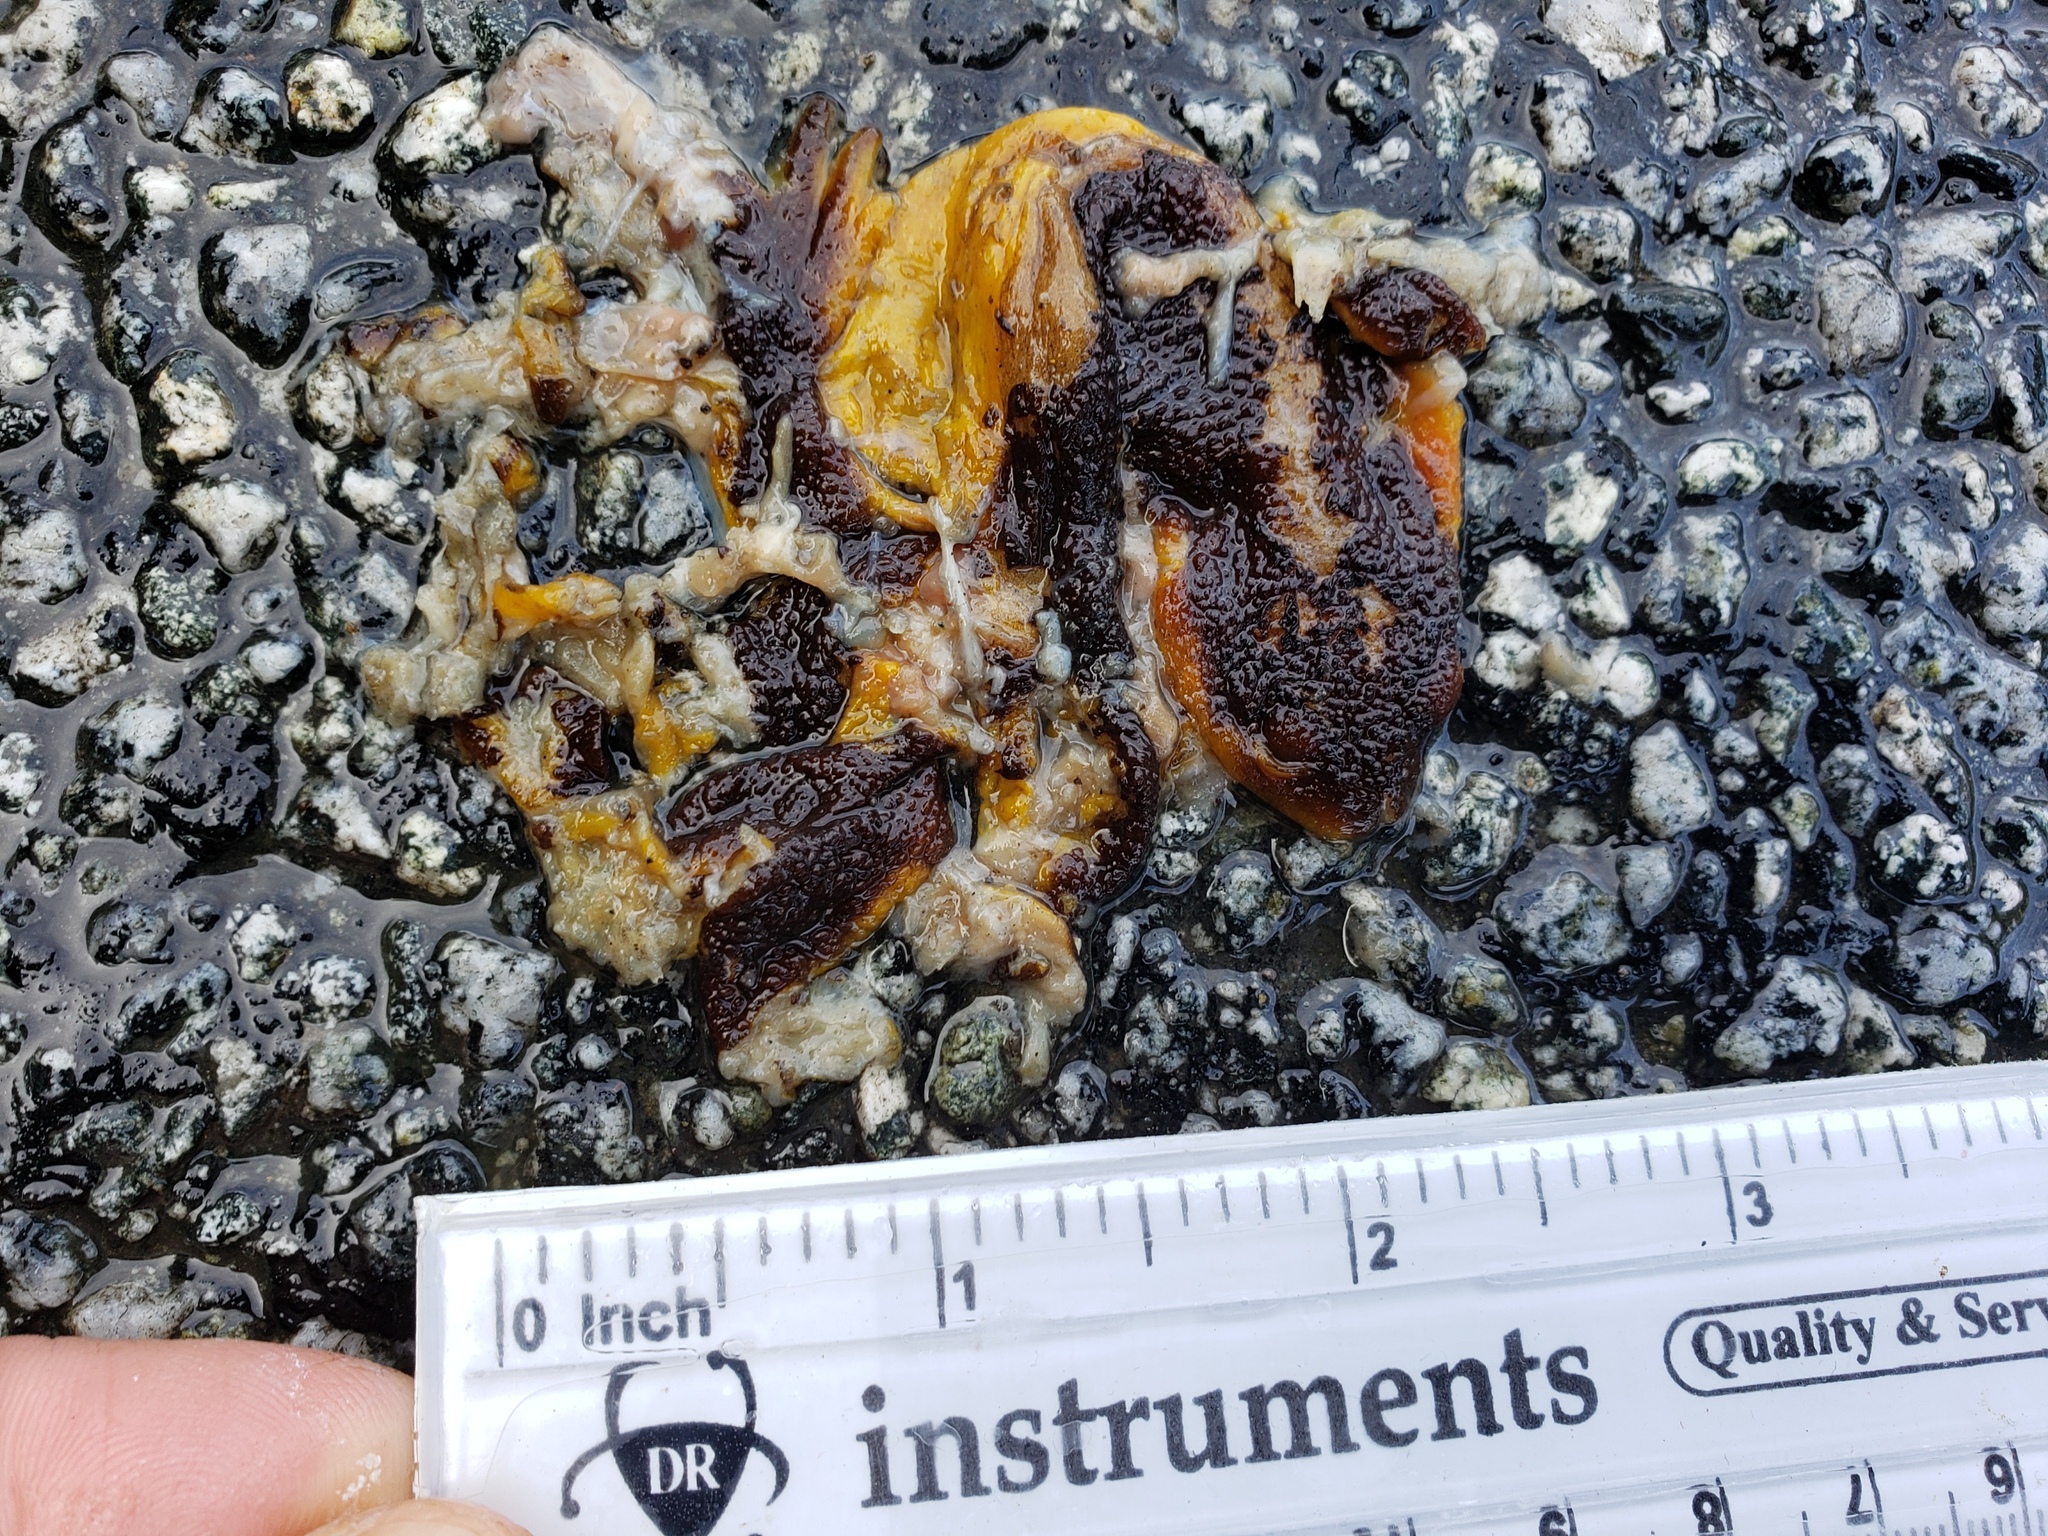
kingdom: Animalia
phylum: Chordata
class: Amphibia
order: Caudata
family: Salamandridae
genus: Taricha
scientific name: Taricha
